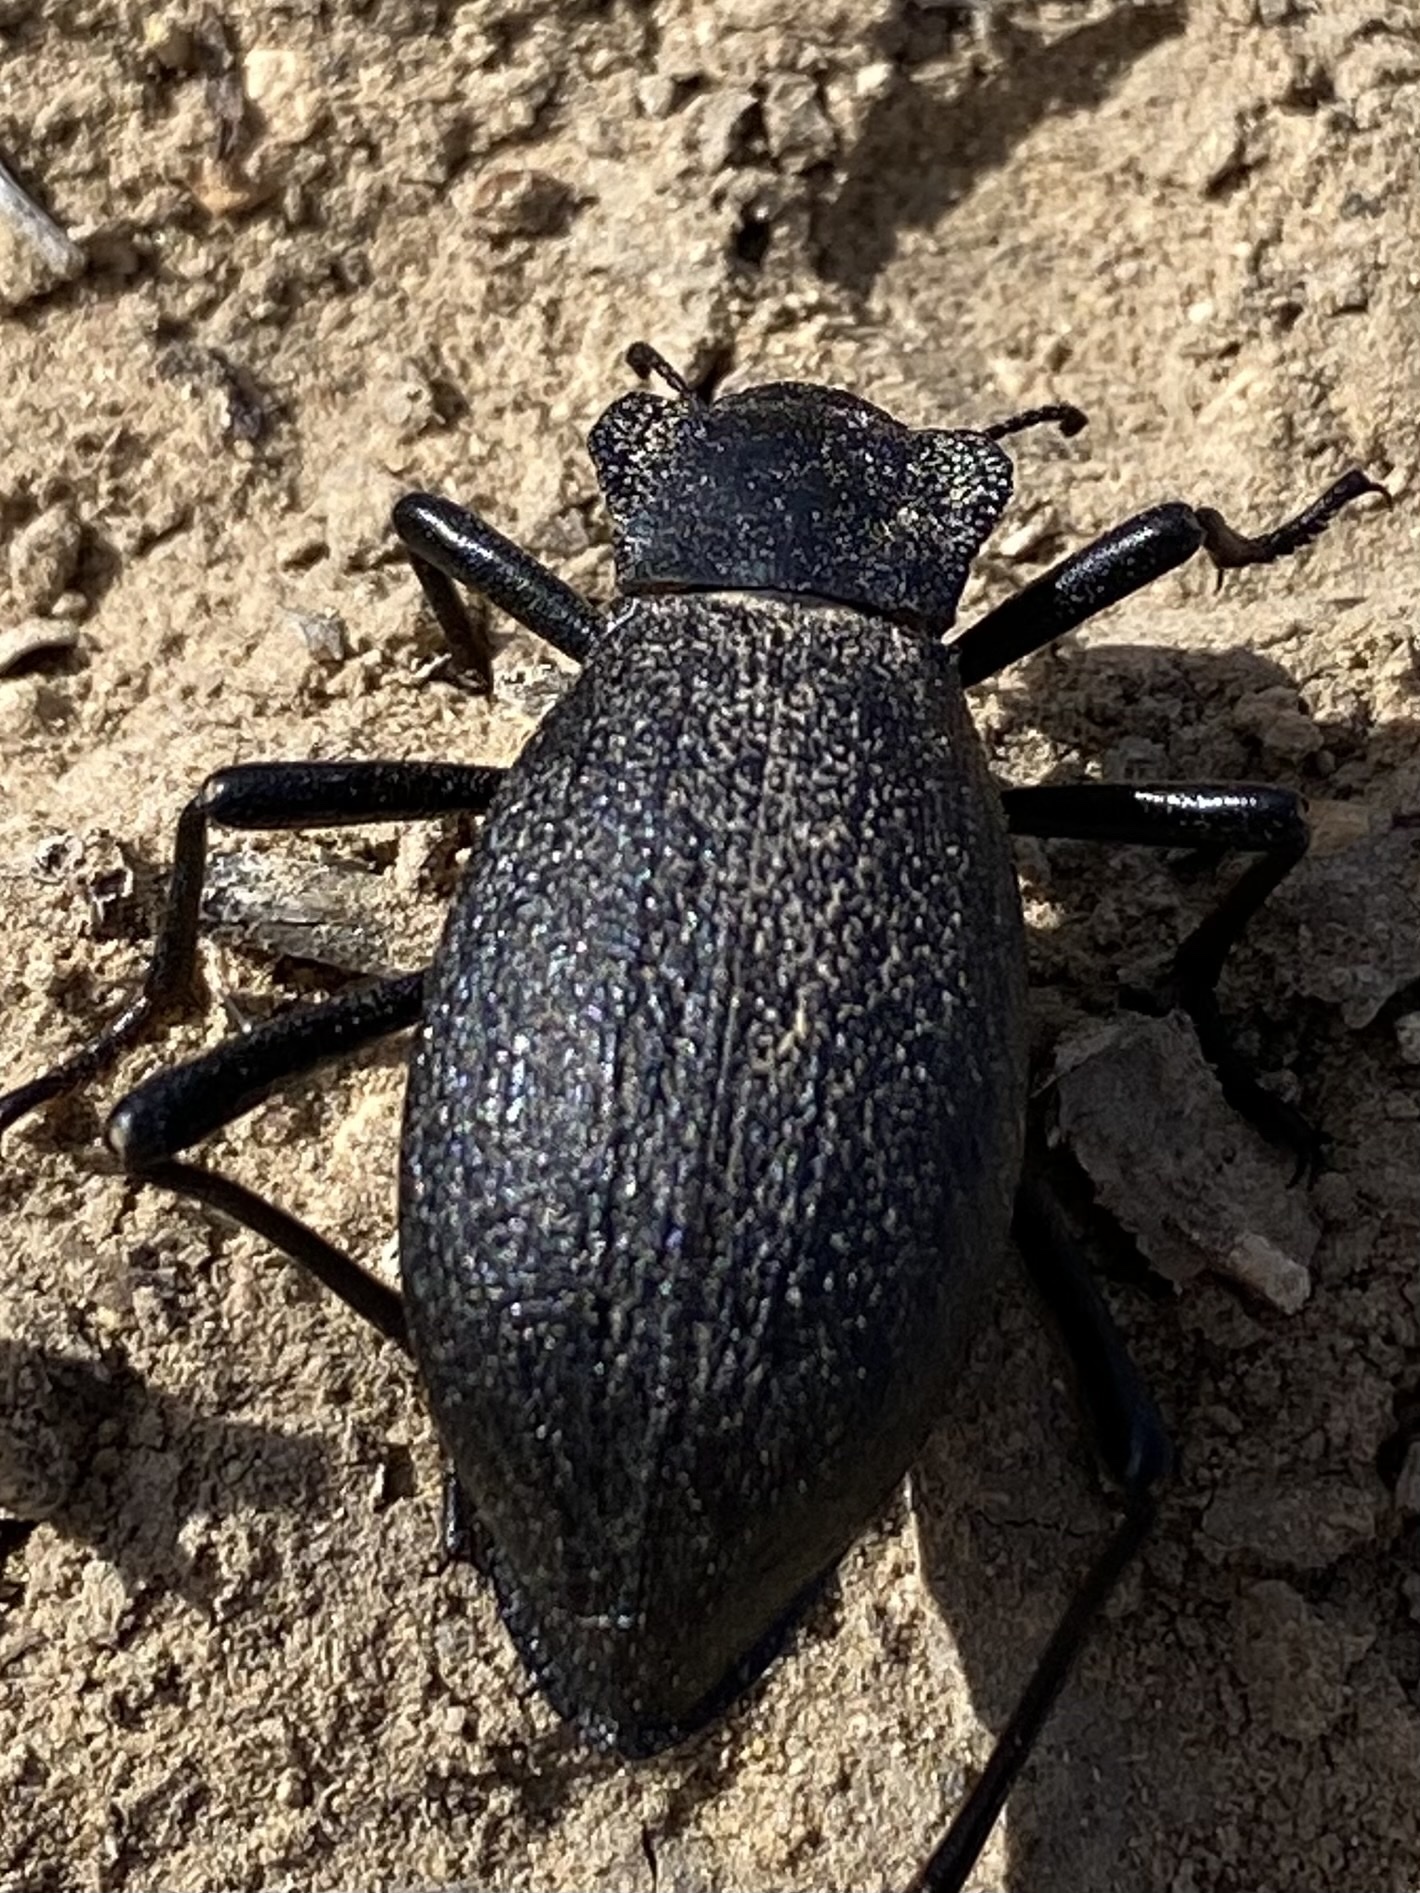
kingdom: Animalia
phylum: Arthropoda
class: Insecta
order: Coleoptera
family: Tenebrionidae
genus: Philolithus
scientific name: Philolithus elatus
